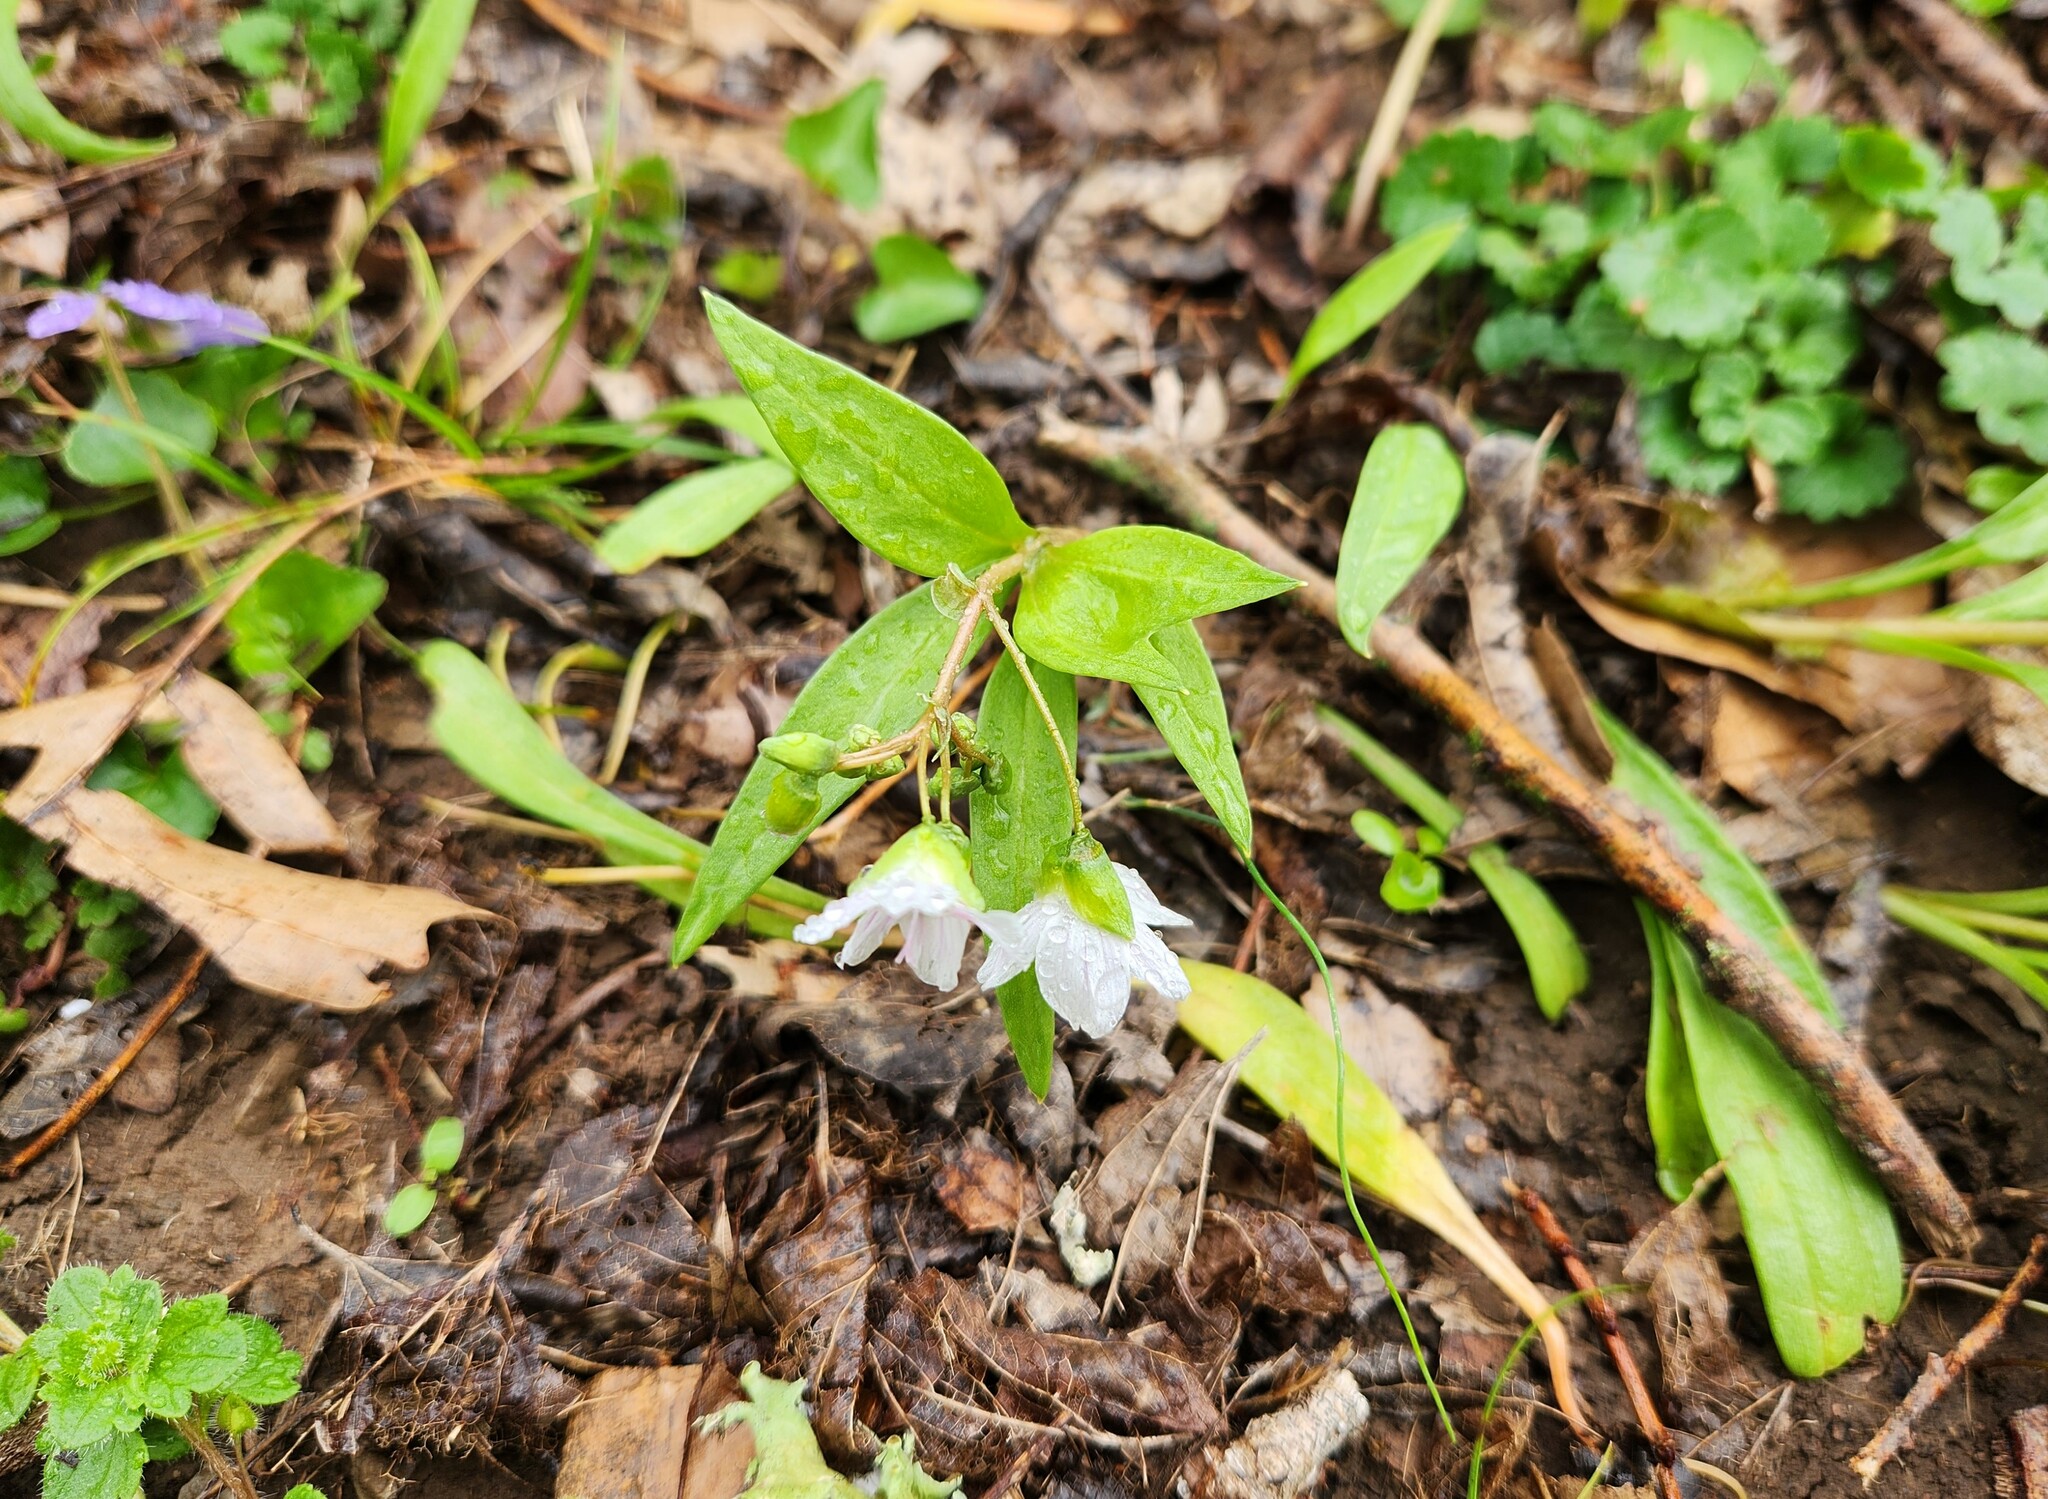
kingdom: Plantae
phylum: Tracheophyta
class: Magnoliopsida
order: Caryophyllales
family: Montiaceae
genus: Claytonia
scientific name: Claytonia virginica
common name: Virginia springbeauty
